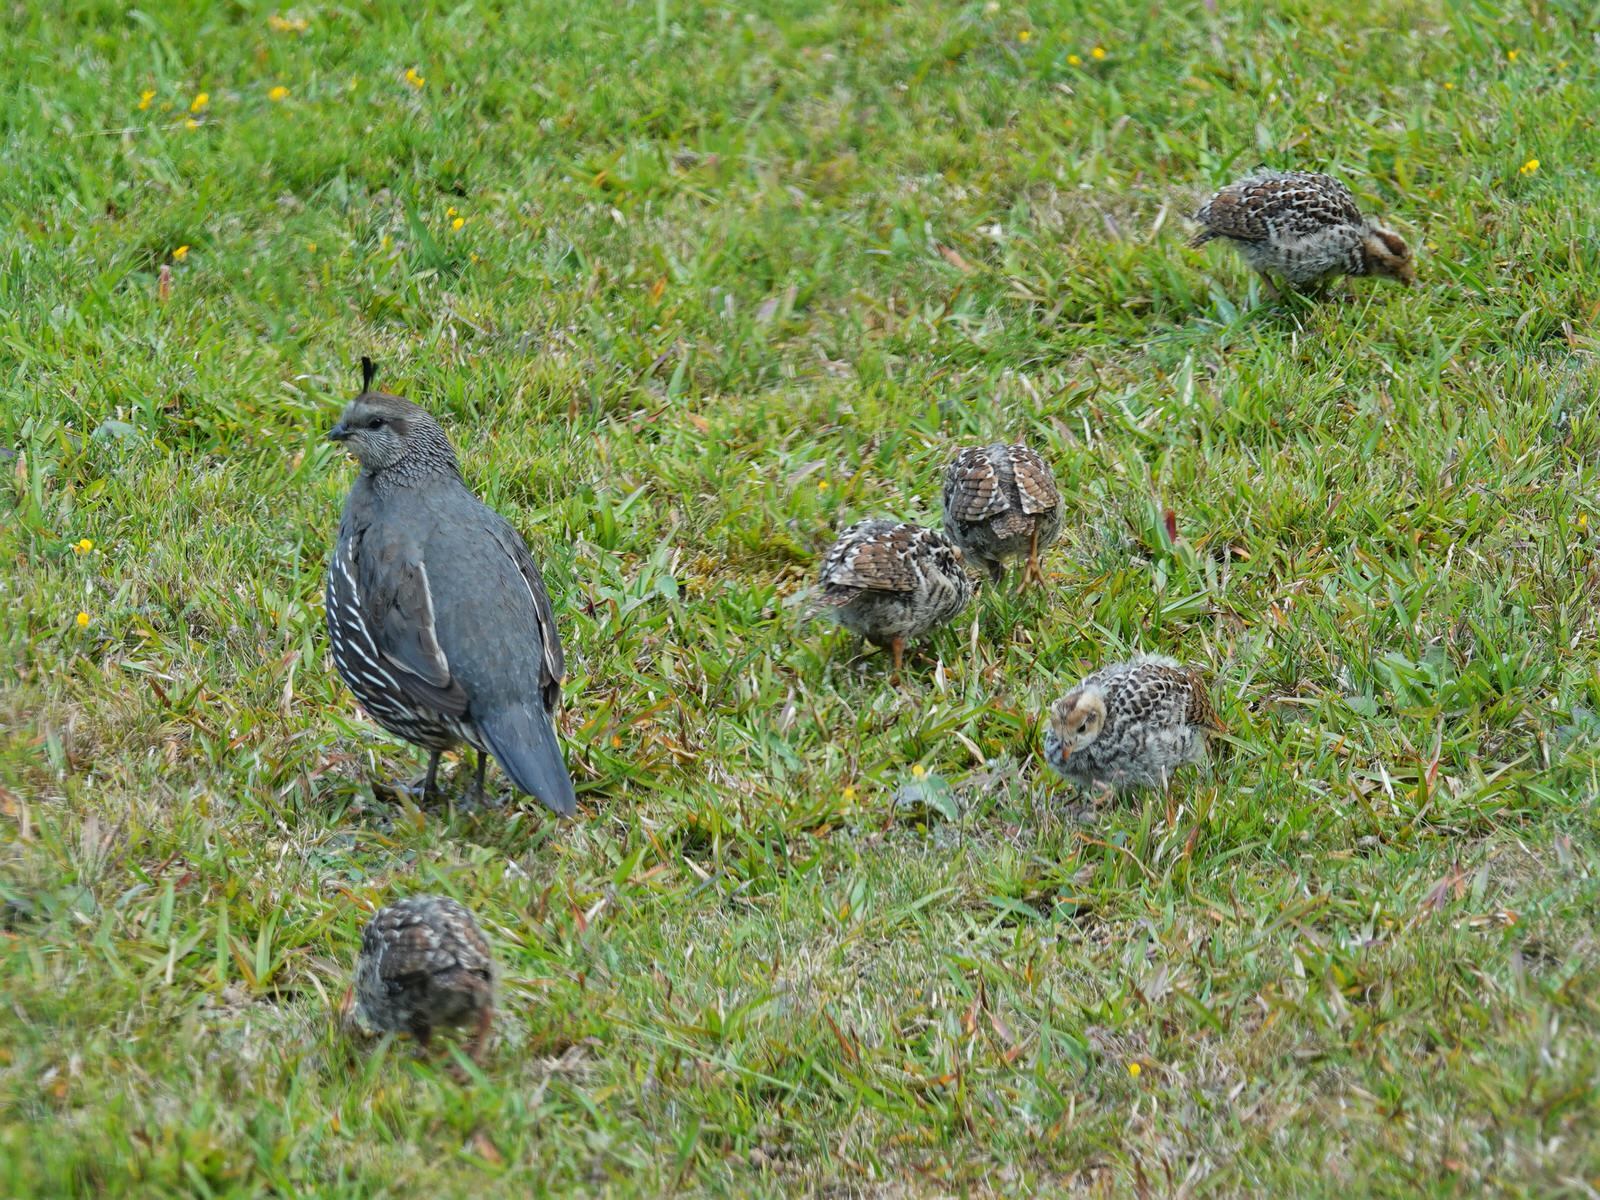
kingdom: Animalia
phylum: Chordata
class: Aves
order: Galliformes
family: Odontophoridae
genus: Callipepla
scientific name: Callipepla californica
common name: California quail
